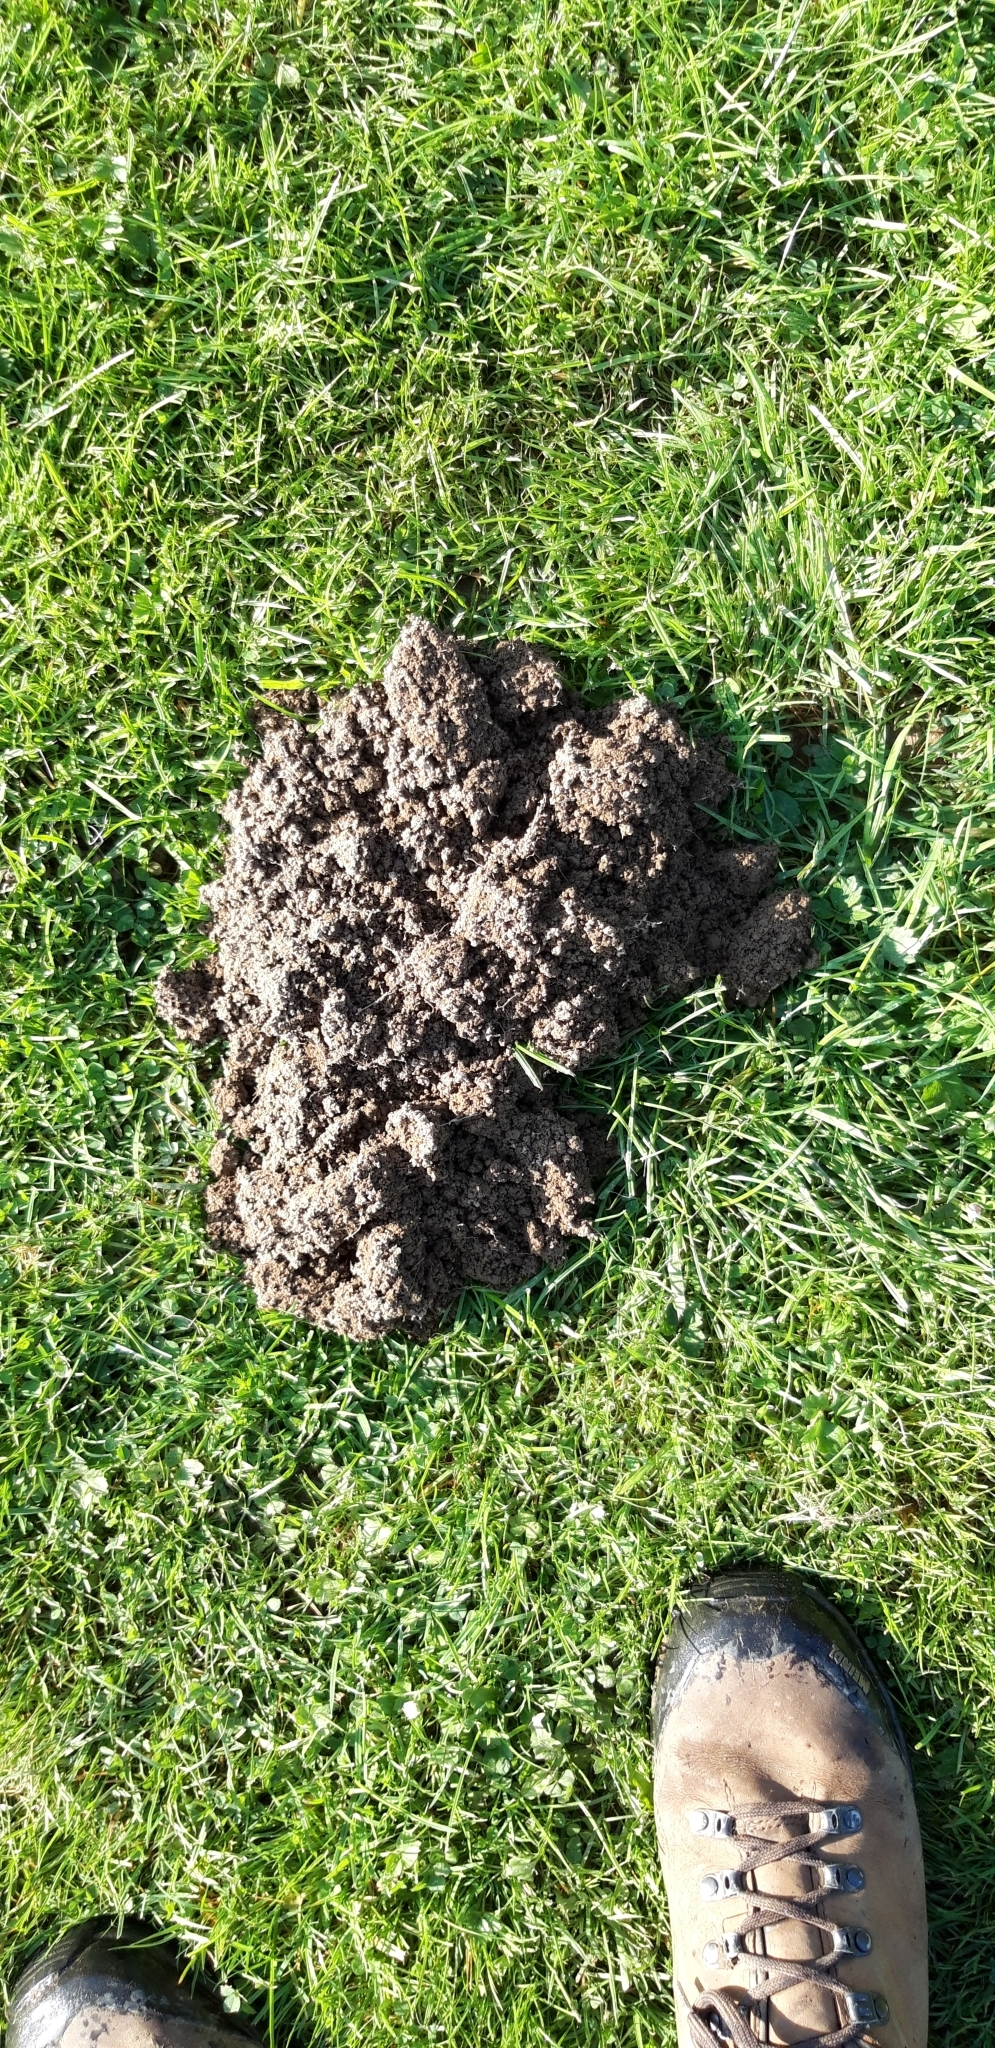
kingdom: Animalia
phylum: Chordata
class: Mammalia
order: Soricomorpha
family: Talpidae
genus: Talpa
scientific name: Talpa europaea
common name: European mole
